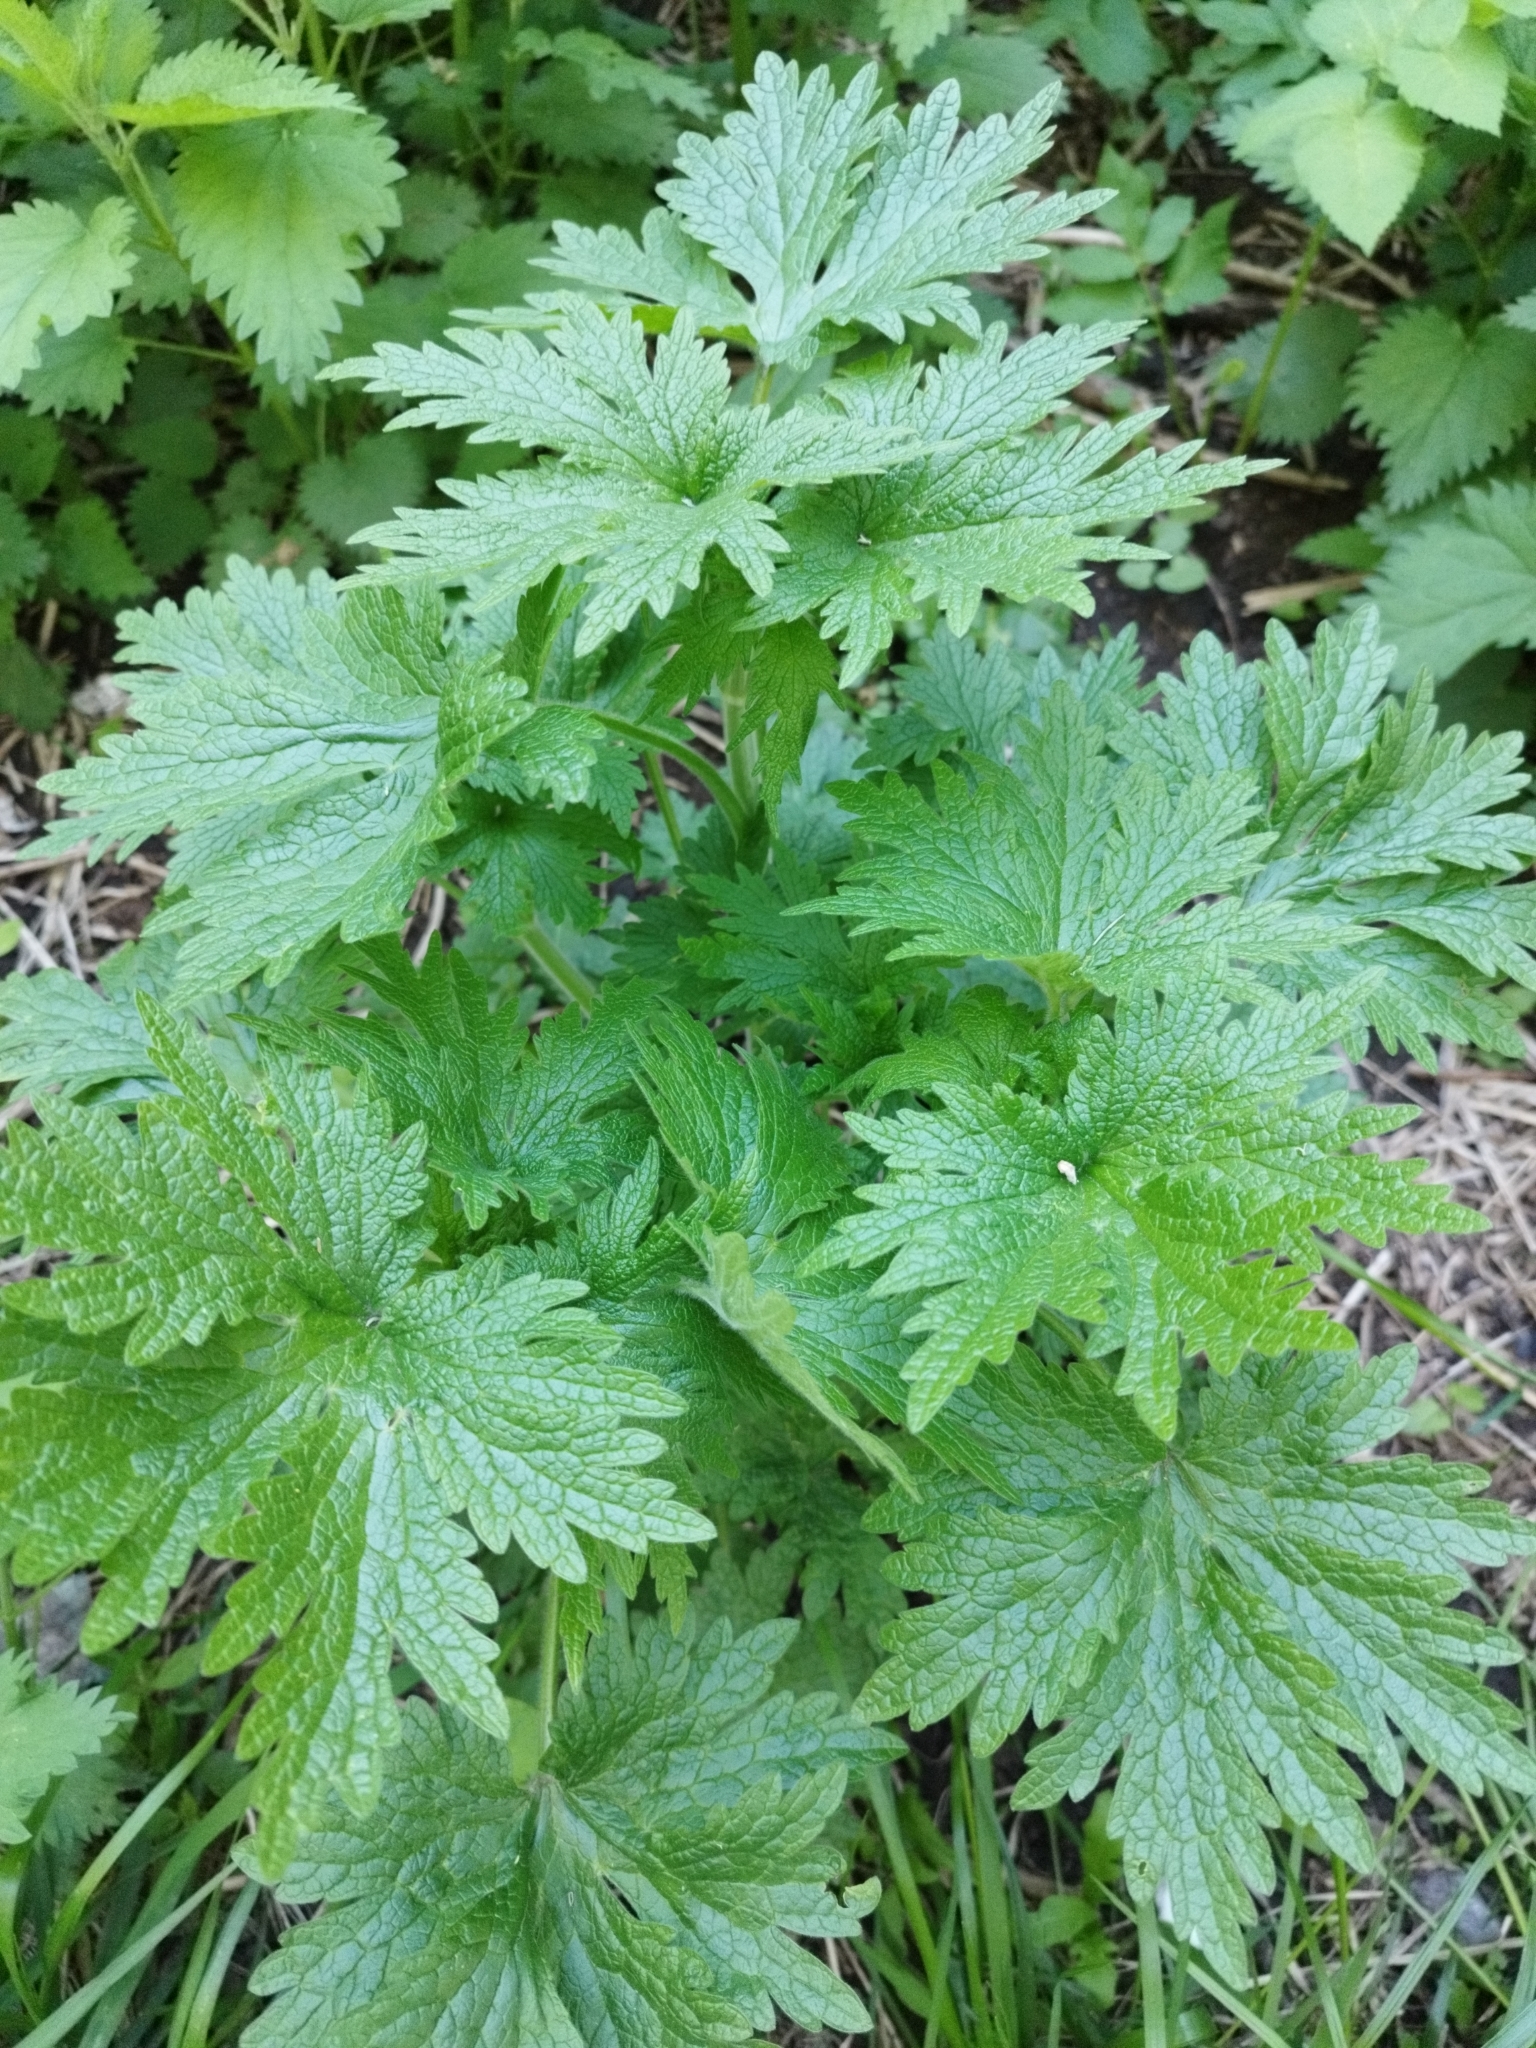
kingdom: Plantae
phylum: Tracheophyta
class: Magnoliopsida
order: Lamiales
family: Lamiaceae
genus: Leonurus
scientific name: Leonurus quinquelobatus
